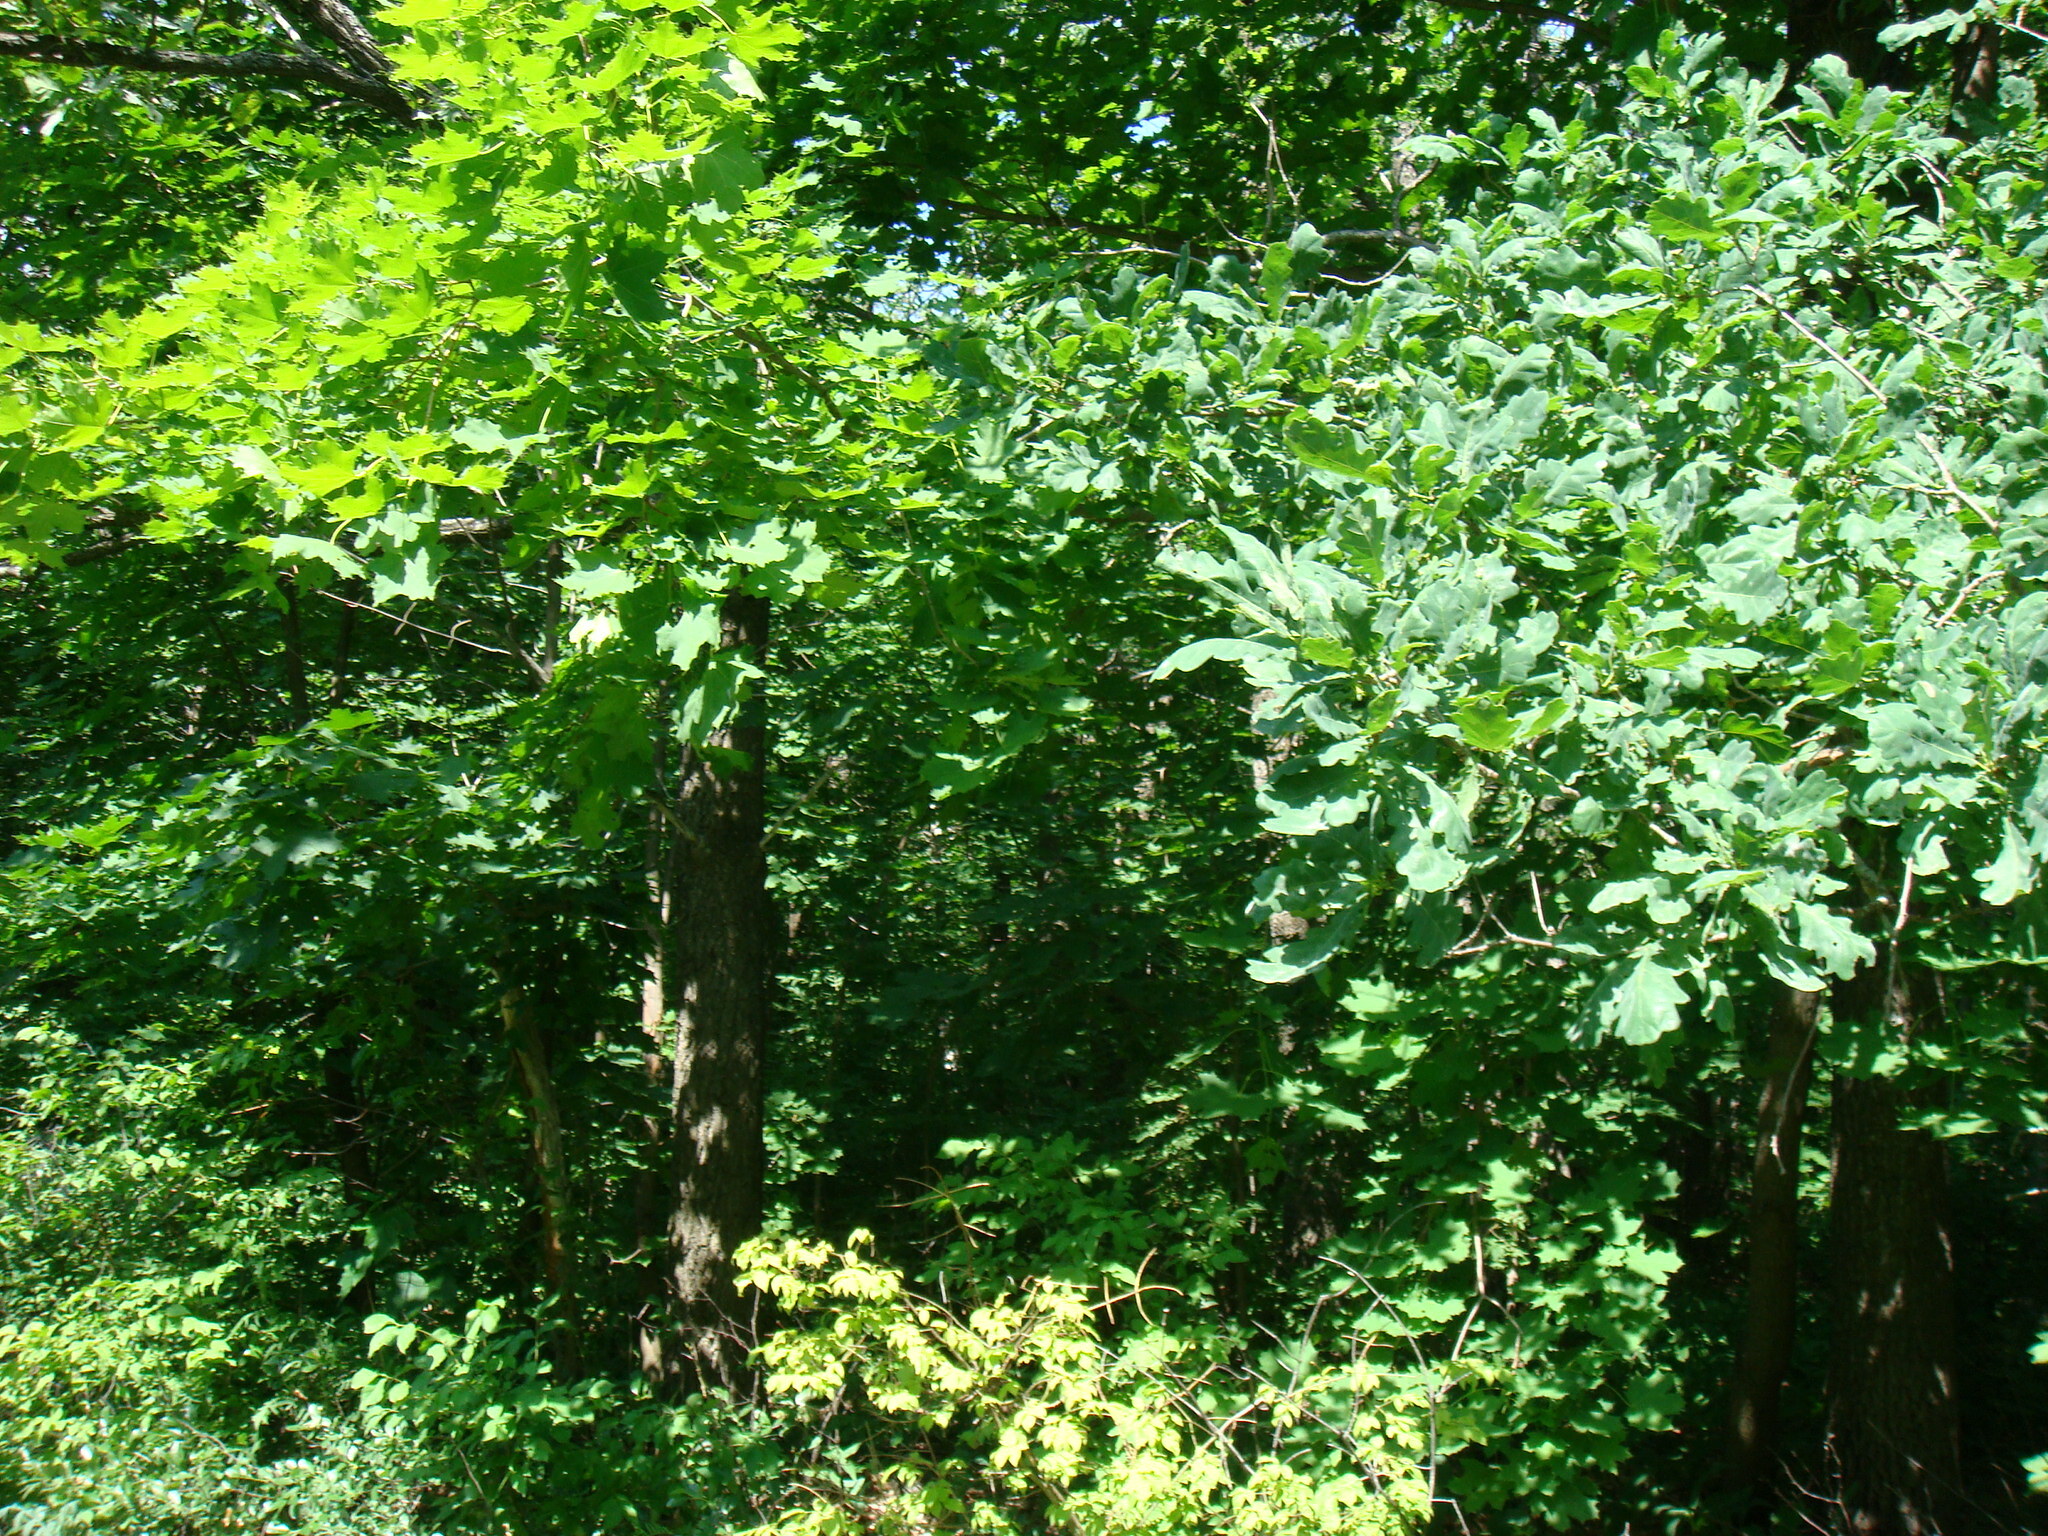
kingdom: Plantae
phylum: Tracheophyta
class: Magnoliopsida
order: Fagales
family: Fagaceae
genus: Quercus
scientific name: Quercus robur
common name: Pedunculate oak
